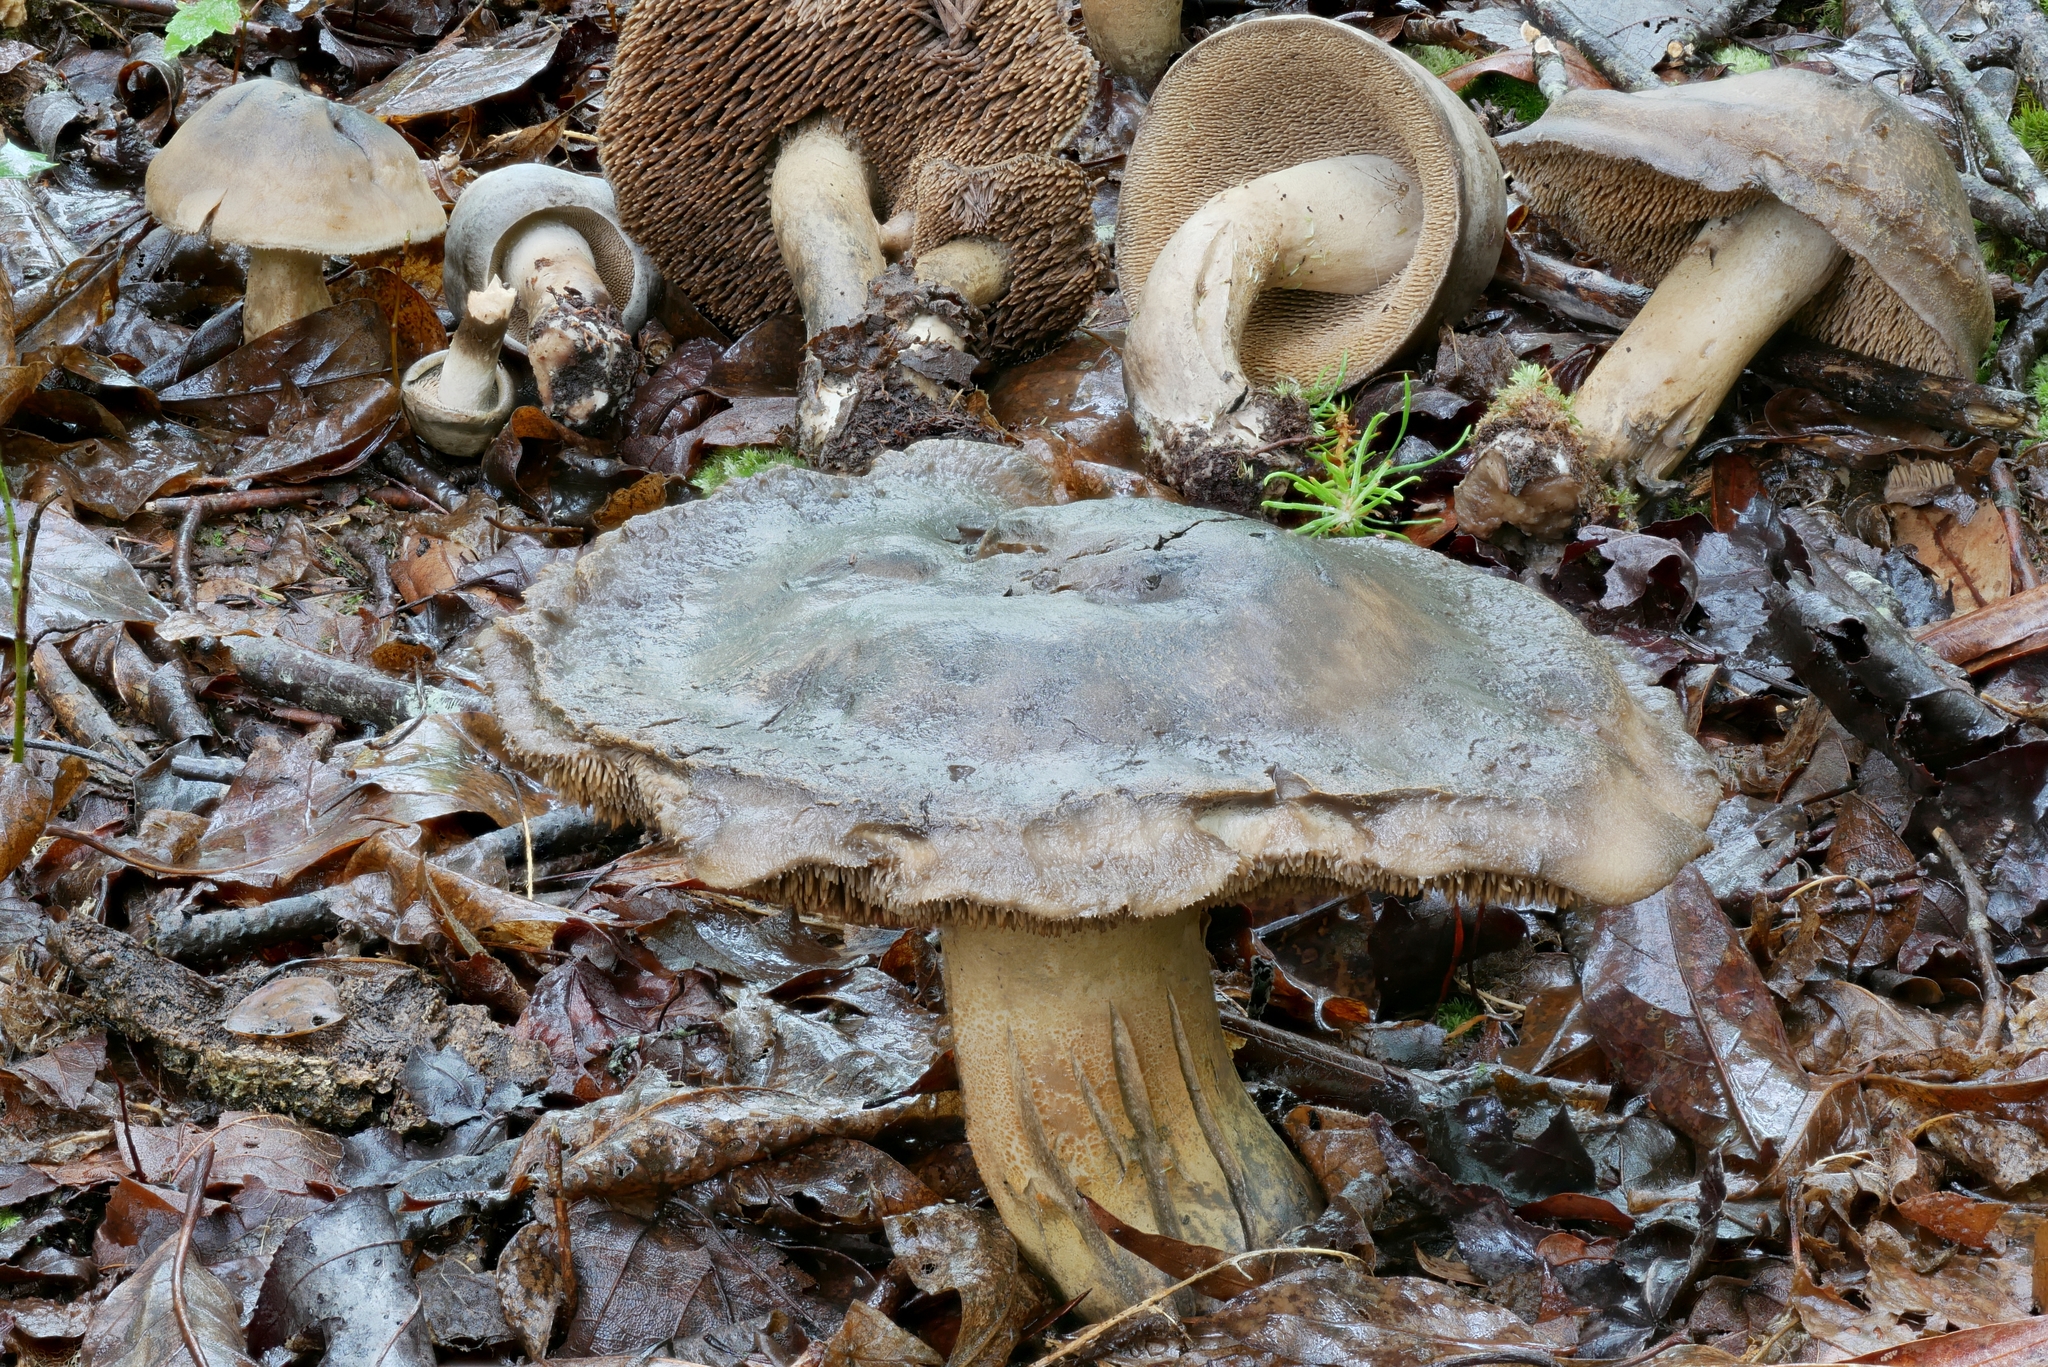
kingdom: Fungi
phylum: Basidiomycota
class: Agaricomycetes
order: Thelephorales
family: Bankeraceae
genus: Sarcodon
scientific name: Sarcodon atroviridis
